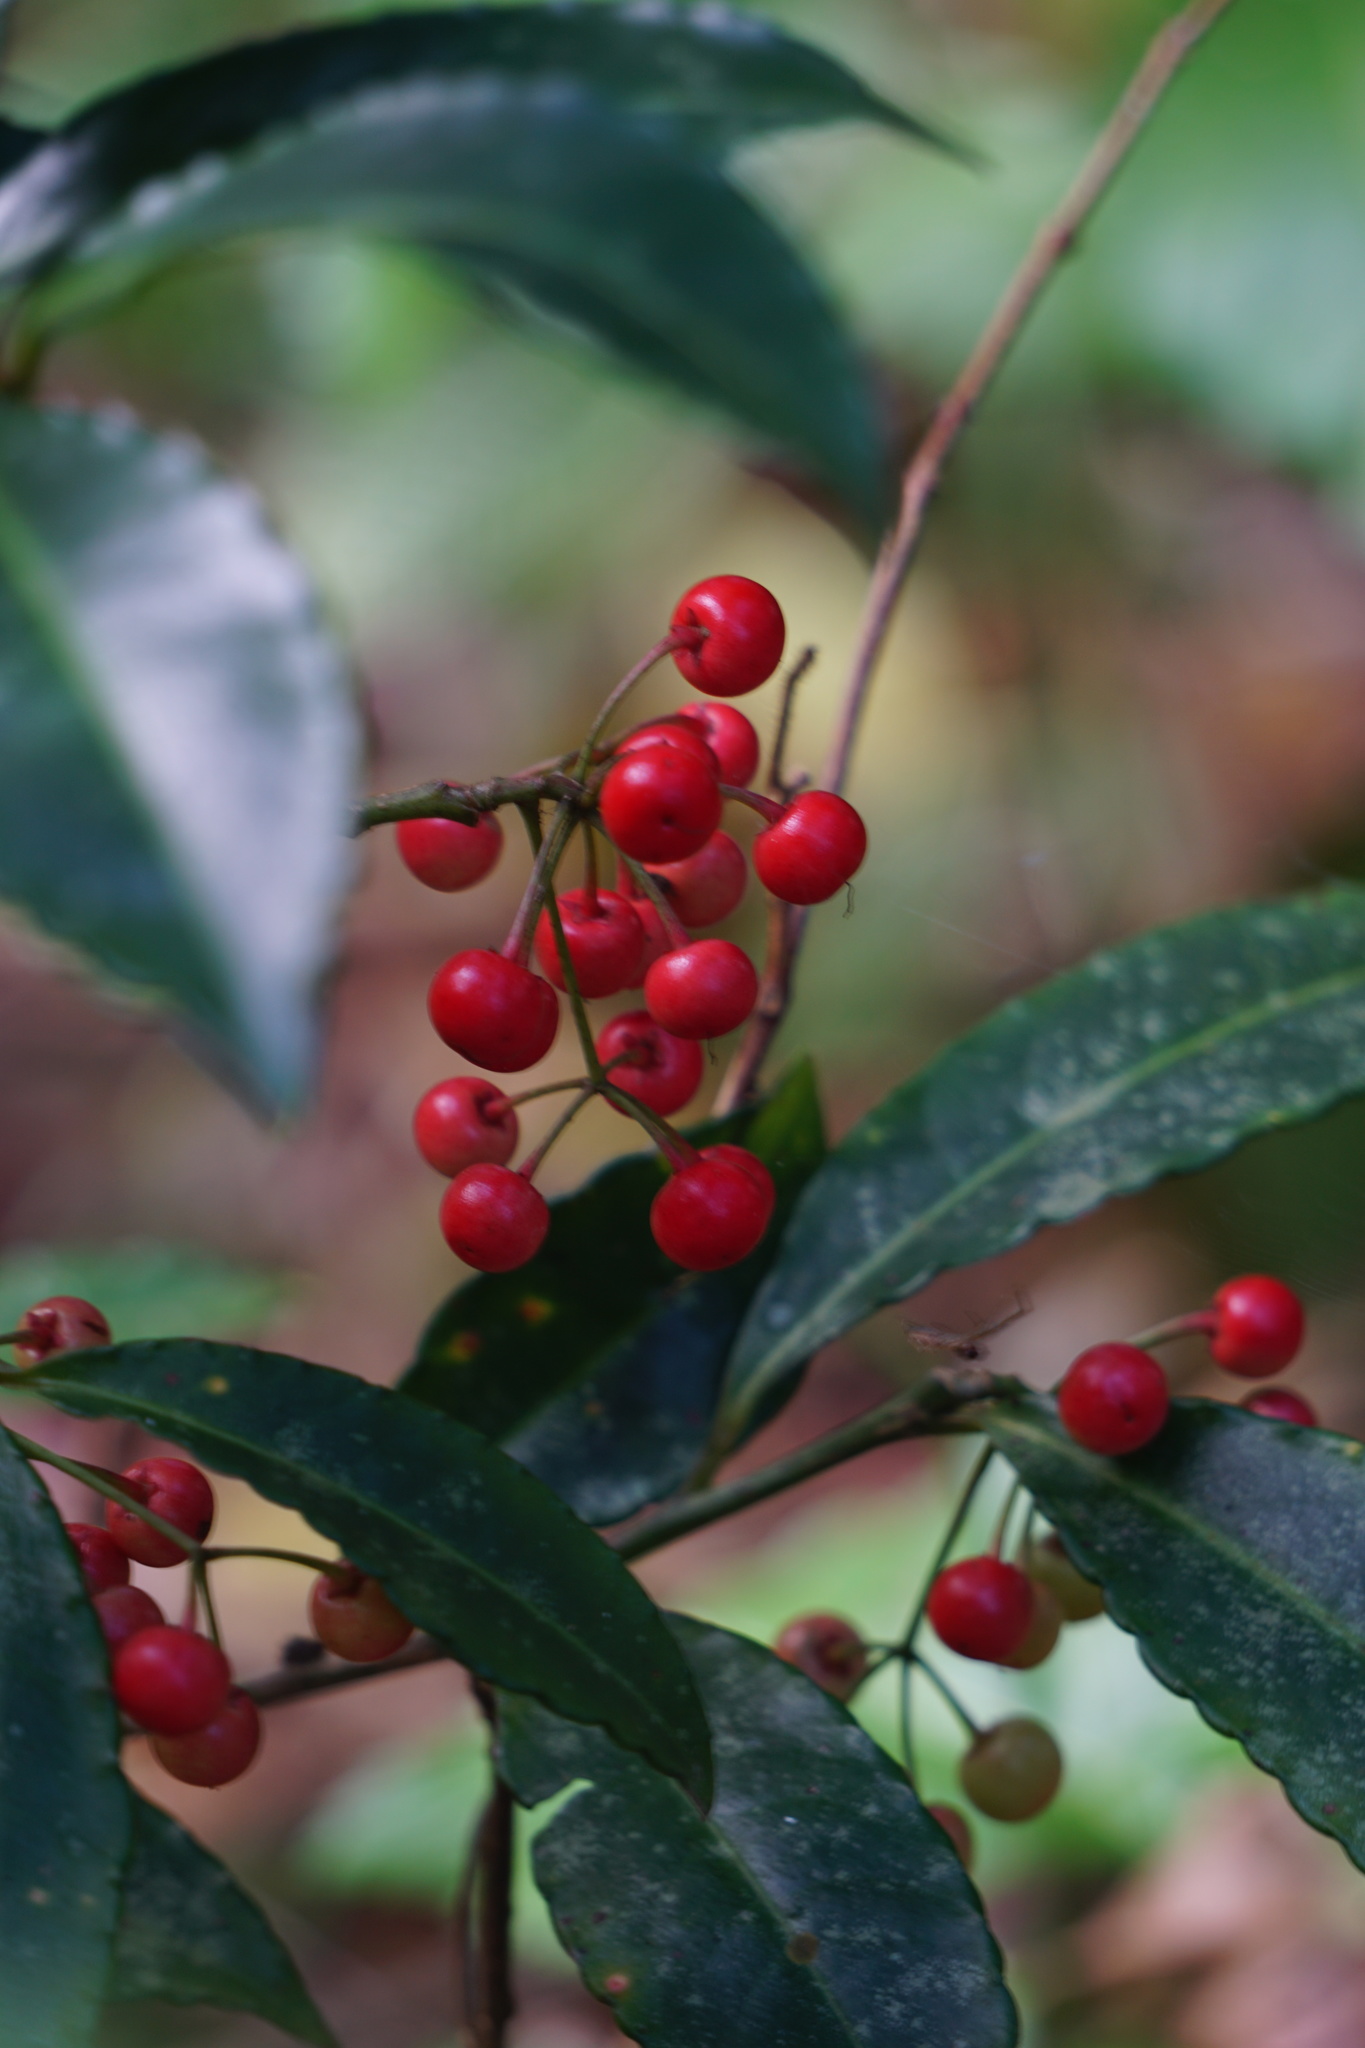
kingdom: Plantae
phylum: Tracheophyta
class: Magnoliopsida
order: Ericales
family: Primulaceae
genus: Ardisia
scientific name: Ardisia crispa
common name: Japanese-holly
